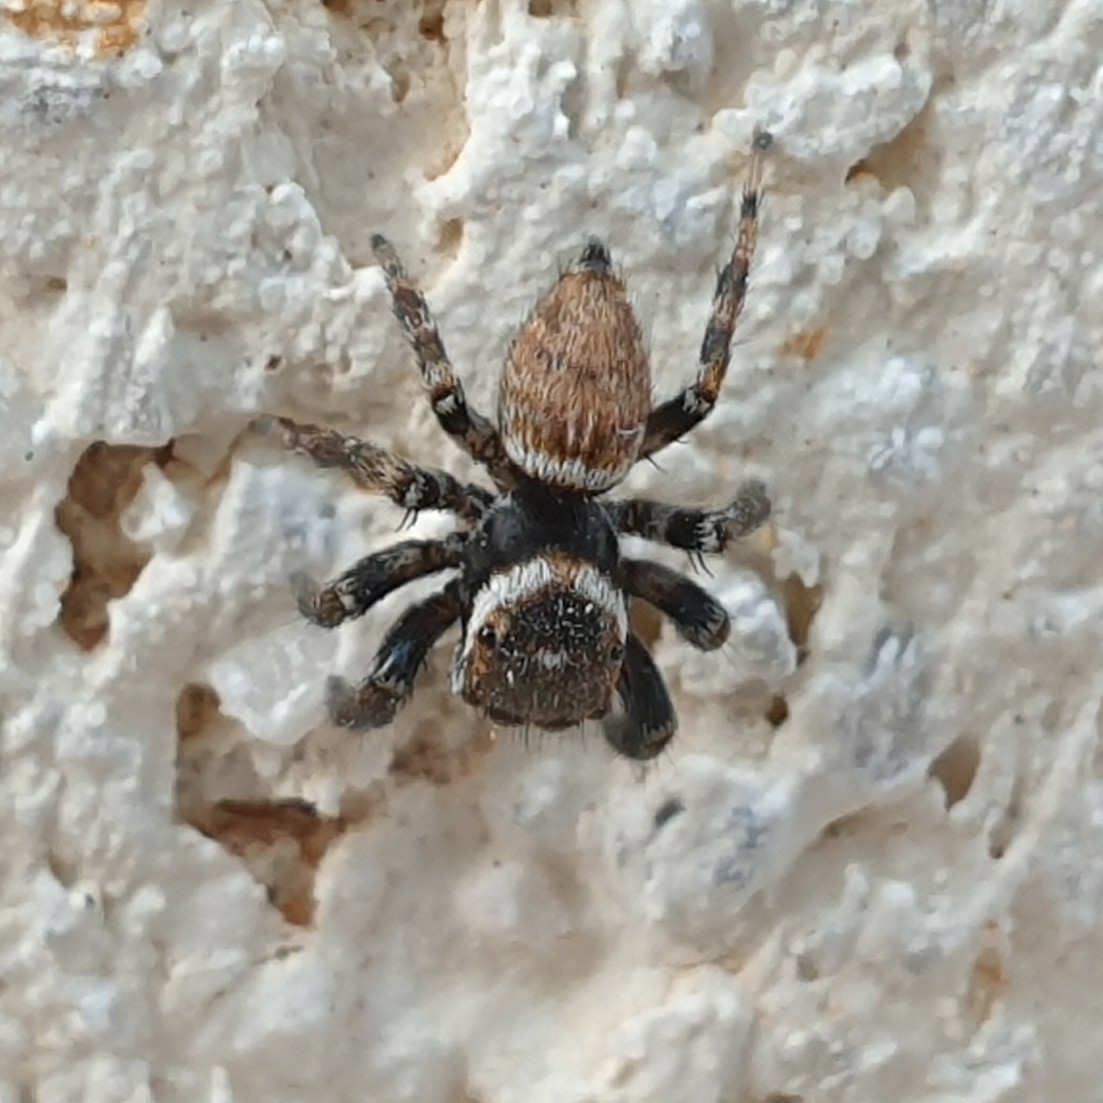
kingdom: Animalia
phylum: Arthropoda
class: Arachnida
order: Araneae
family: Salticidae
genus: Evarcha
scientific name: Evarcha jucunda
